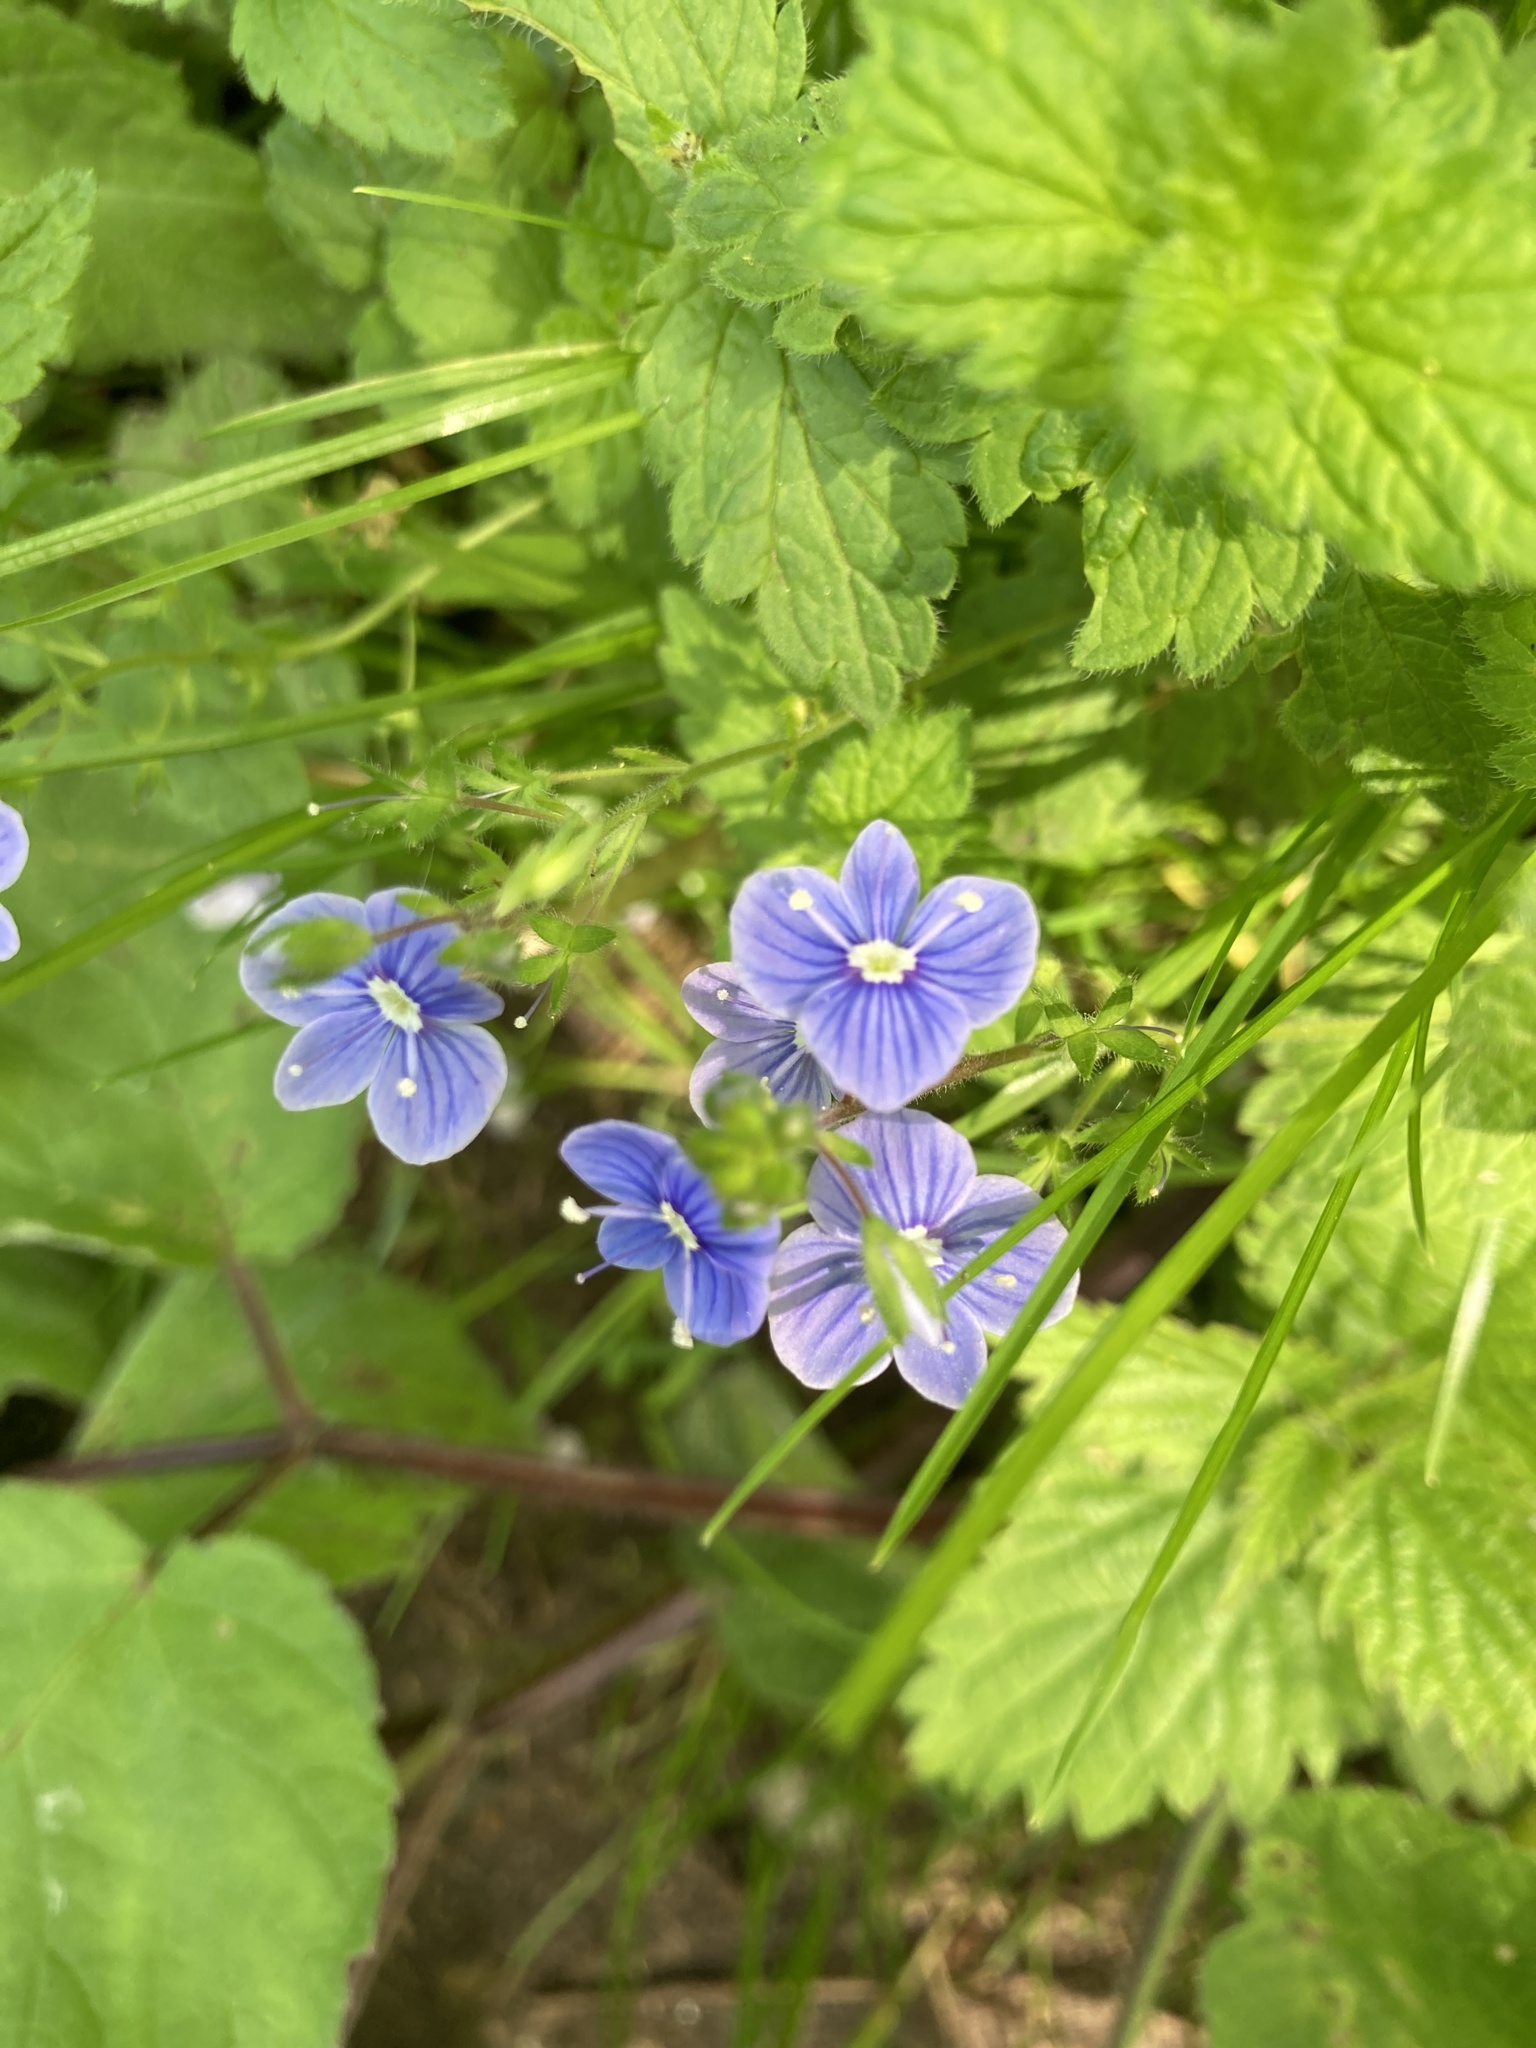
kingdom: Plantae
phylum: Tracheophyta
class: Magnoliopsida
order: Lamiales
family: Plantaginaceae
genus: Veronica
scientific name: Veronica chamaedrys
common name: Germander speedwell
